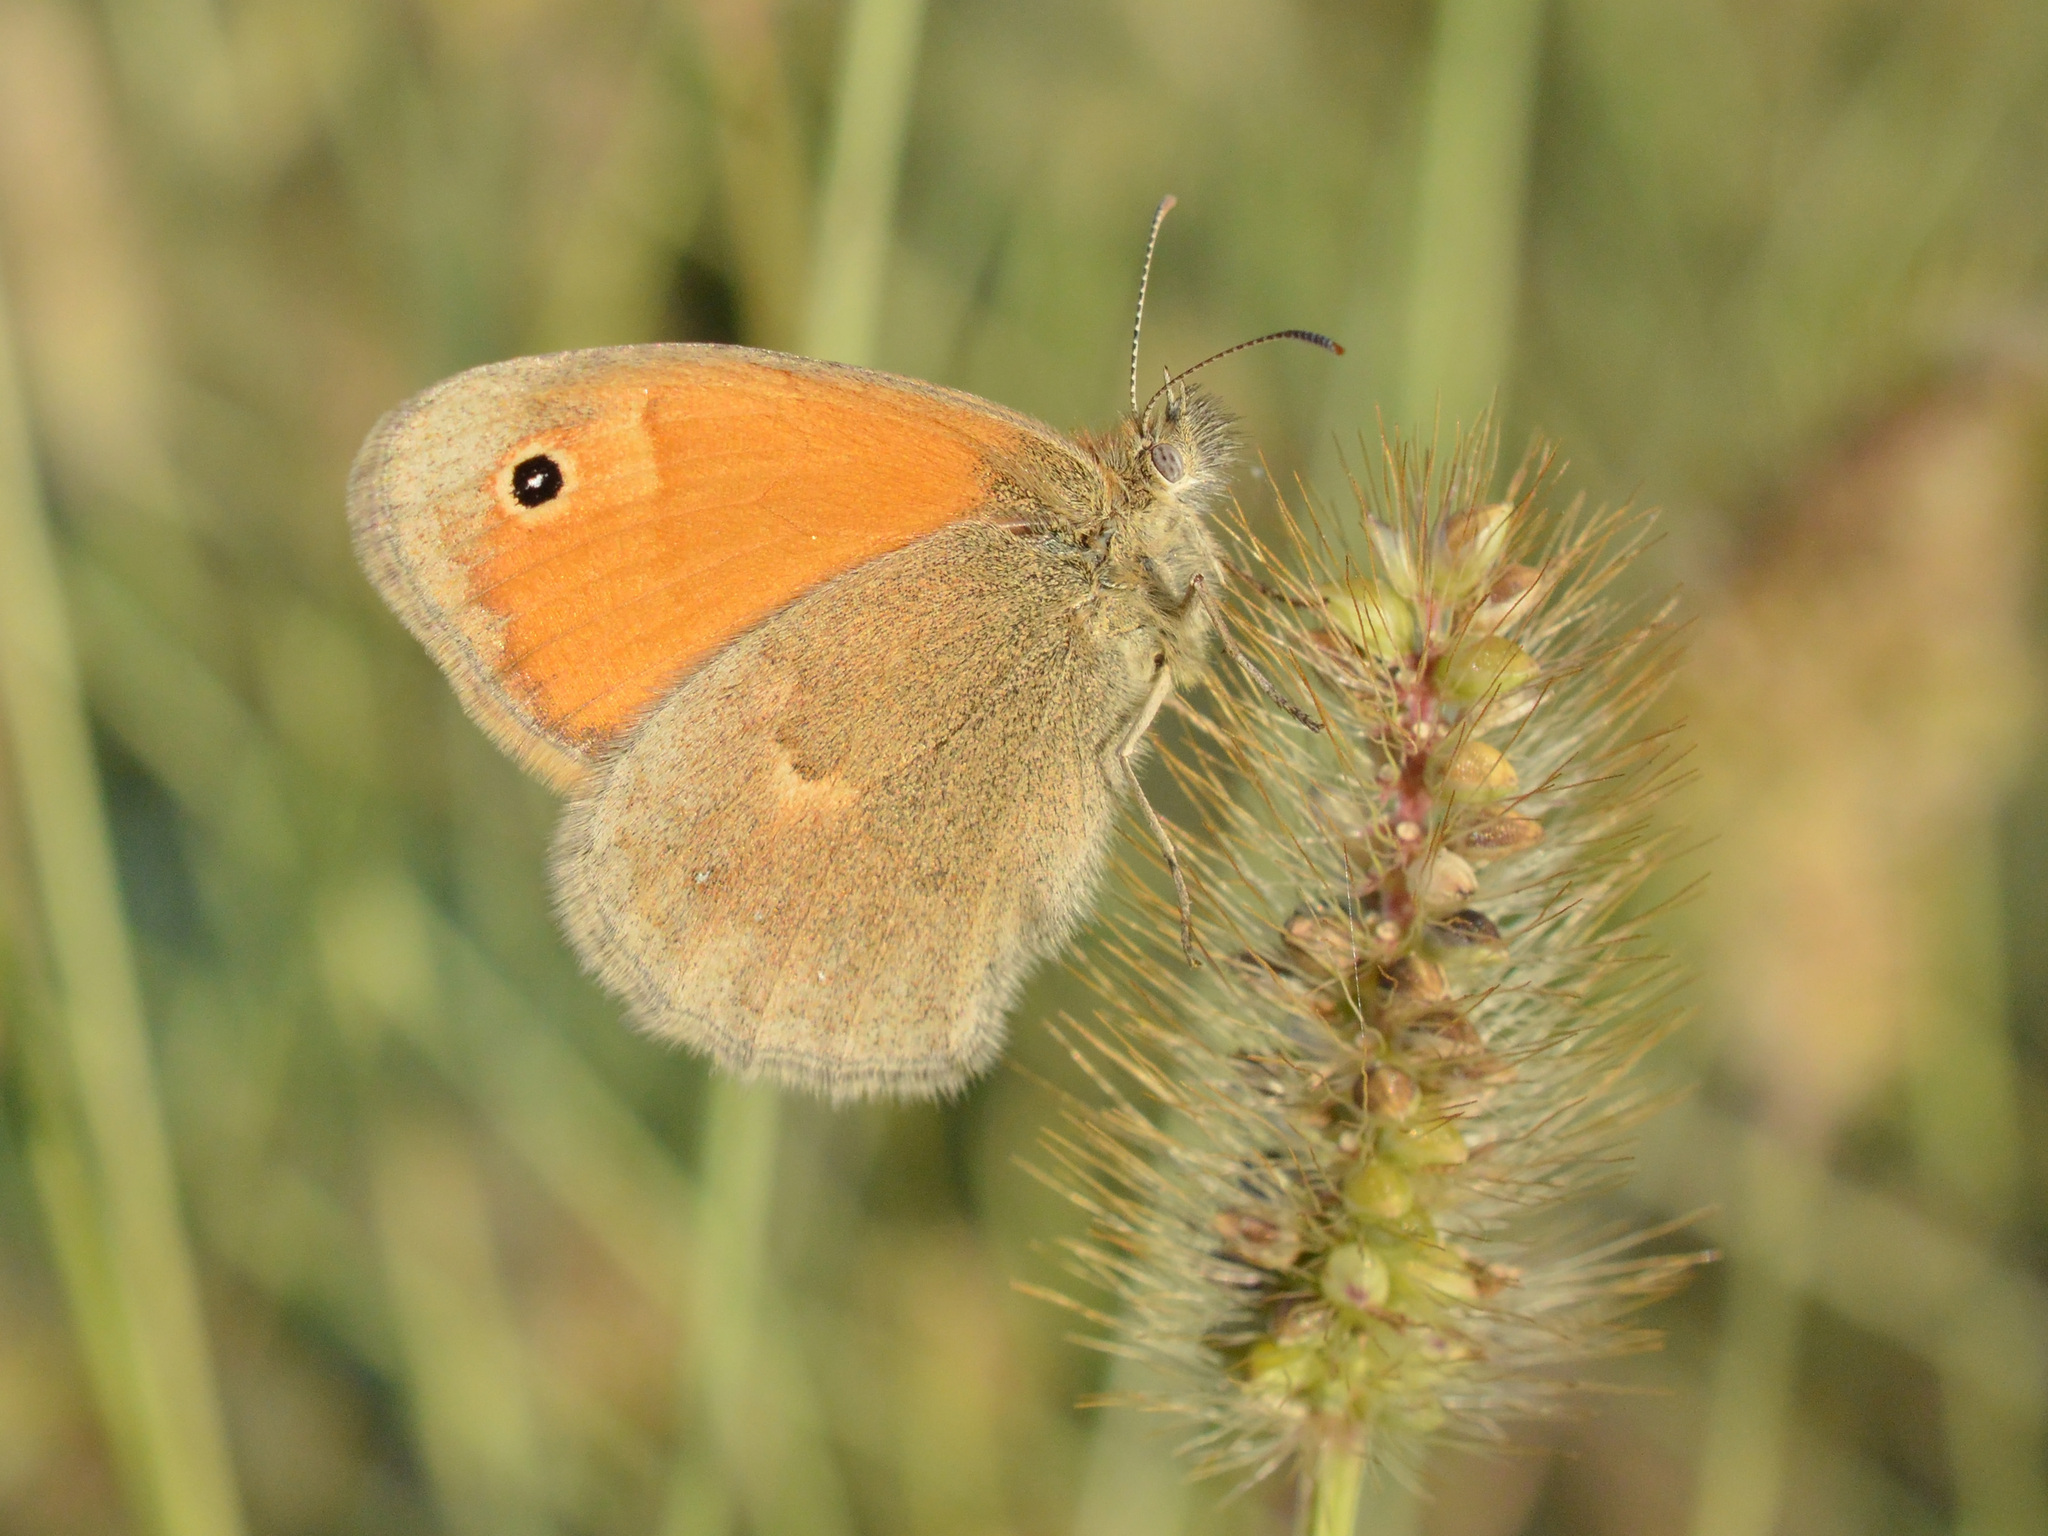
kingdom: Animalia
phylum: Arthropoda
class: Insecta
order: Lepidoptera
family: Nymphalidae
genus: Coenonympha
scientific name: Coenonympha pamphilus
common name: Small heath
